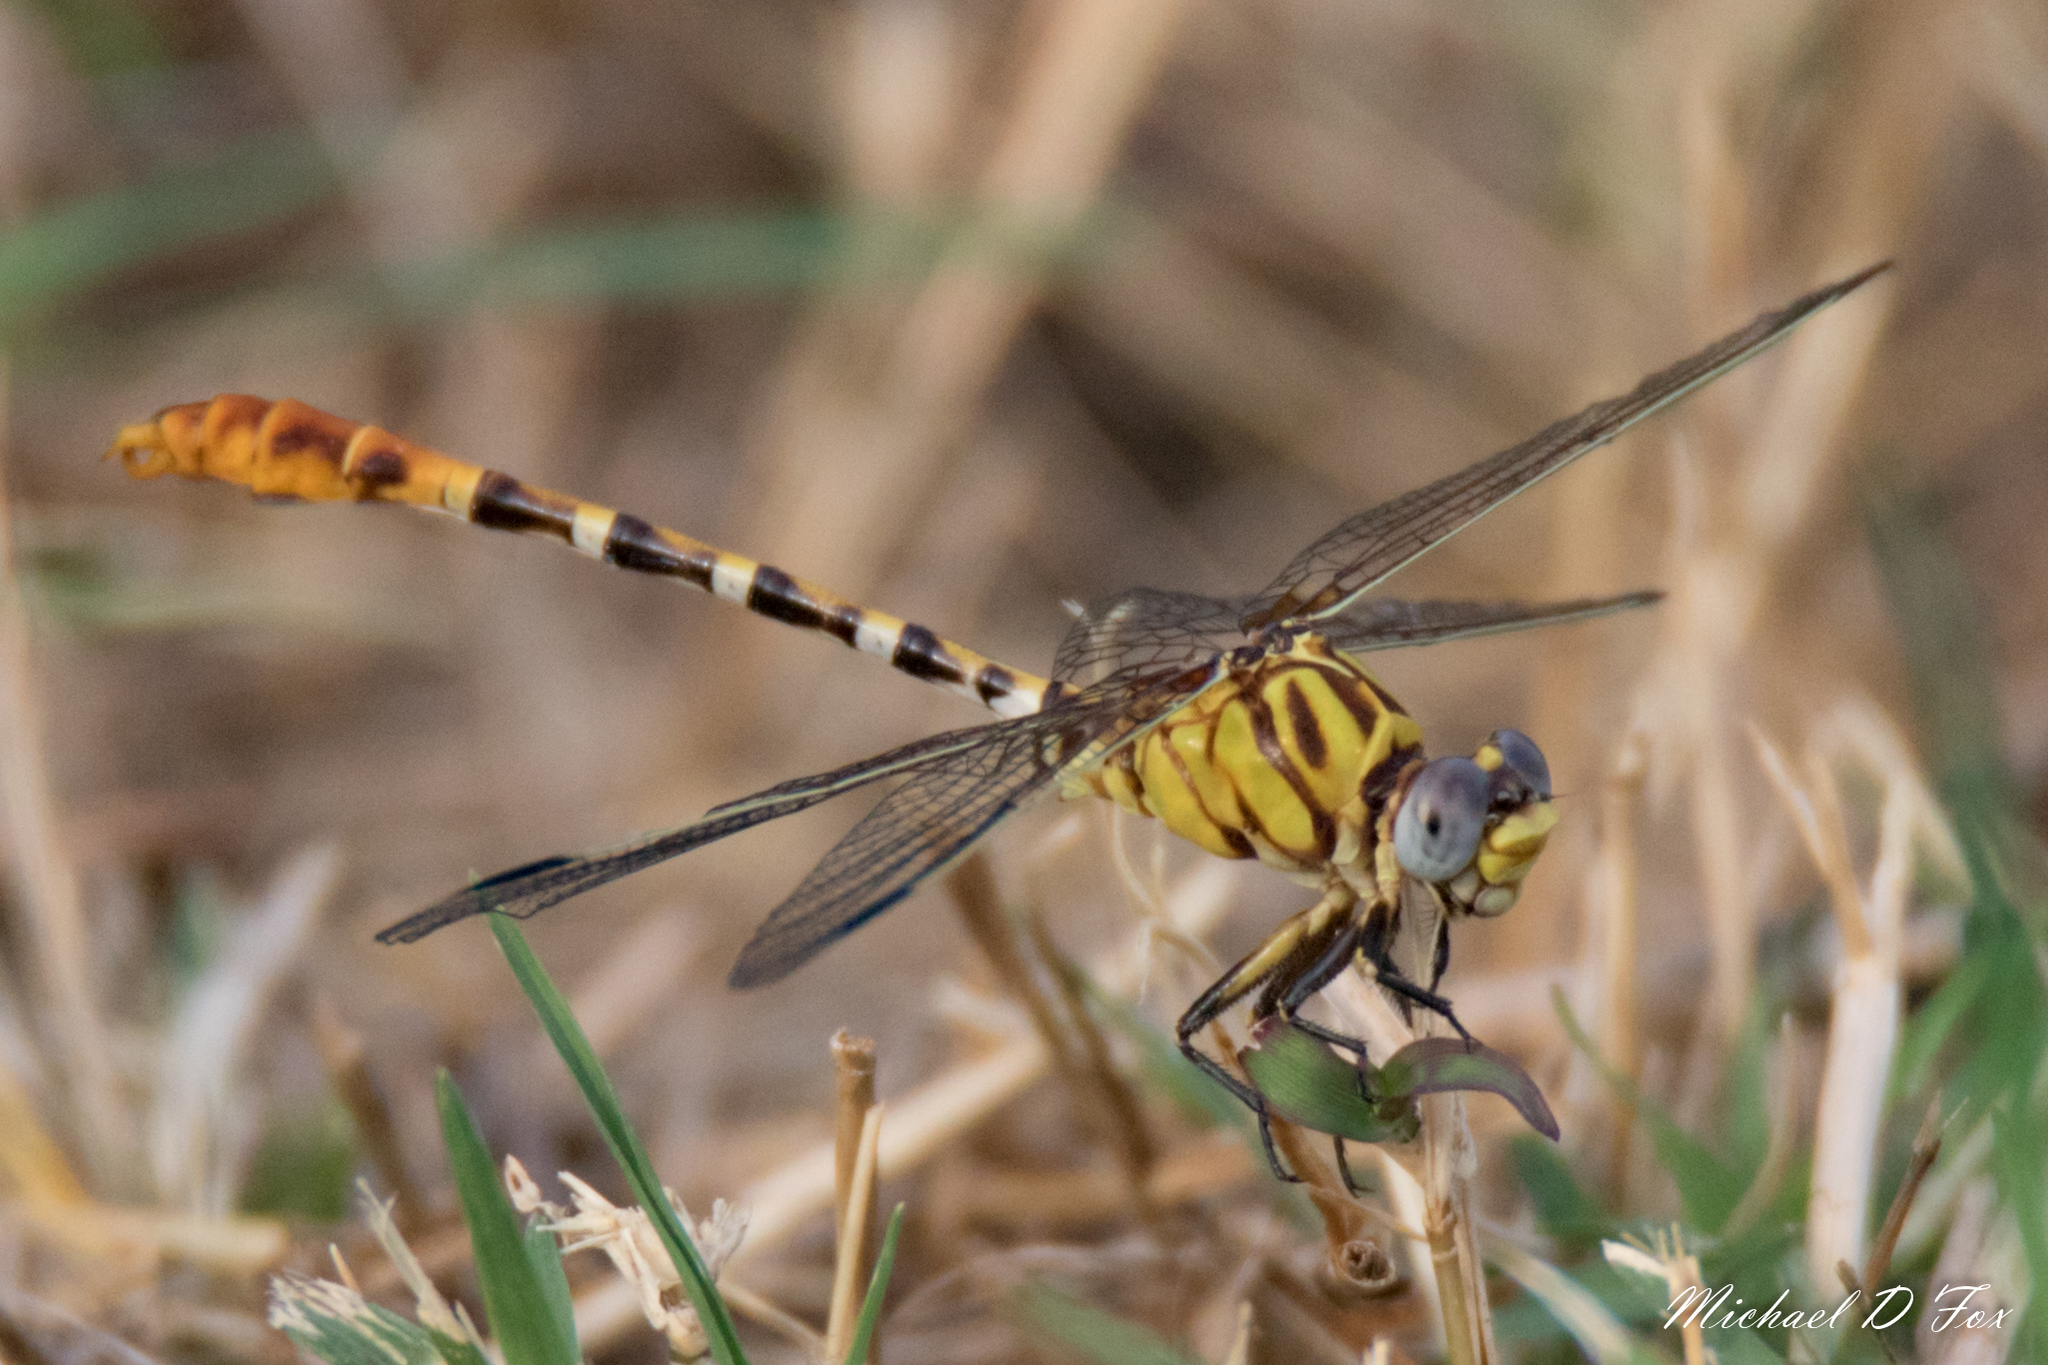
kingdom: Animalia
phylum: Arthropoda
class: Insecta
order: Odonata
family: Gomphidae
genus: Erpetogomphus
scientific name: Erpetogomphus designatus
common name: Eastern ringtail
